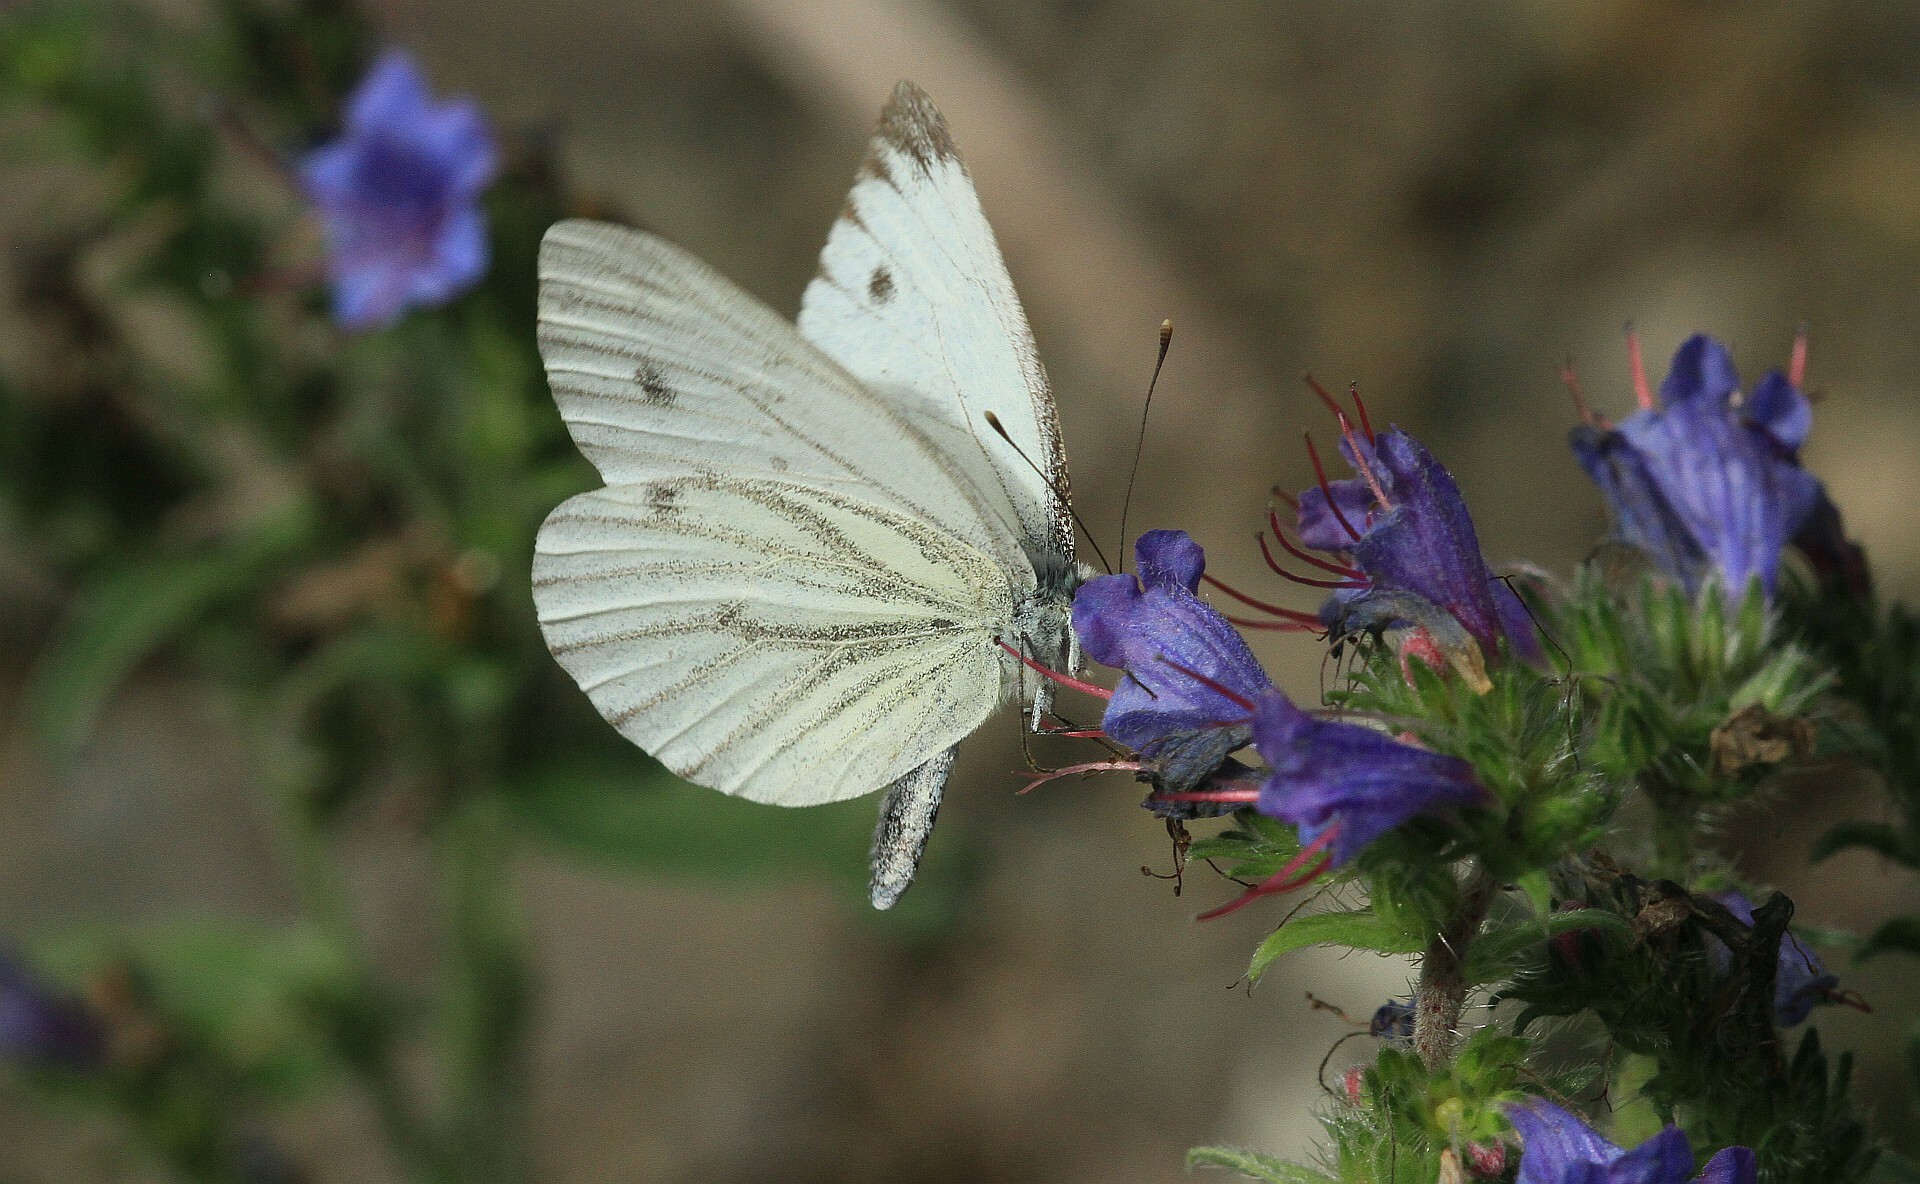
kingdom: Animalia
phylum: Arthropoda
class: Insecta
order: Lepidoptera
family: Pieridae
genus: Pieris
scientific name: Pieris napi
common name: Green-veined white
